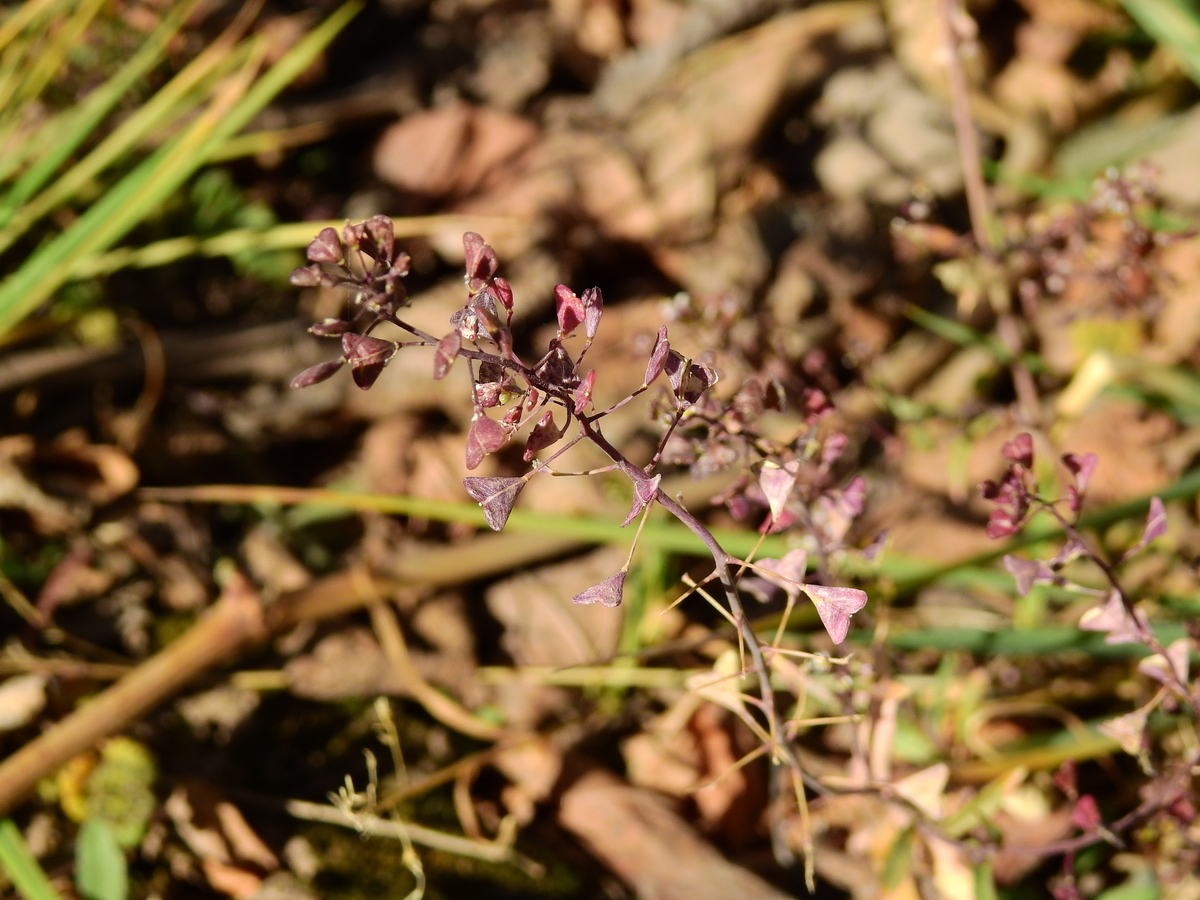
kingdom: Plantae
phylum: Tracheophyta
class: Magnoliopsida
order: Brassicales
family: Brassicaceae
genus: Capsella
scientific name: Capsella bursa-pastoris
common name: Shepherd's purse
